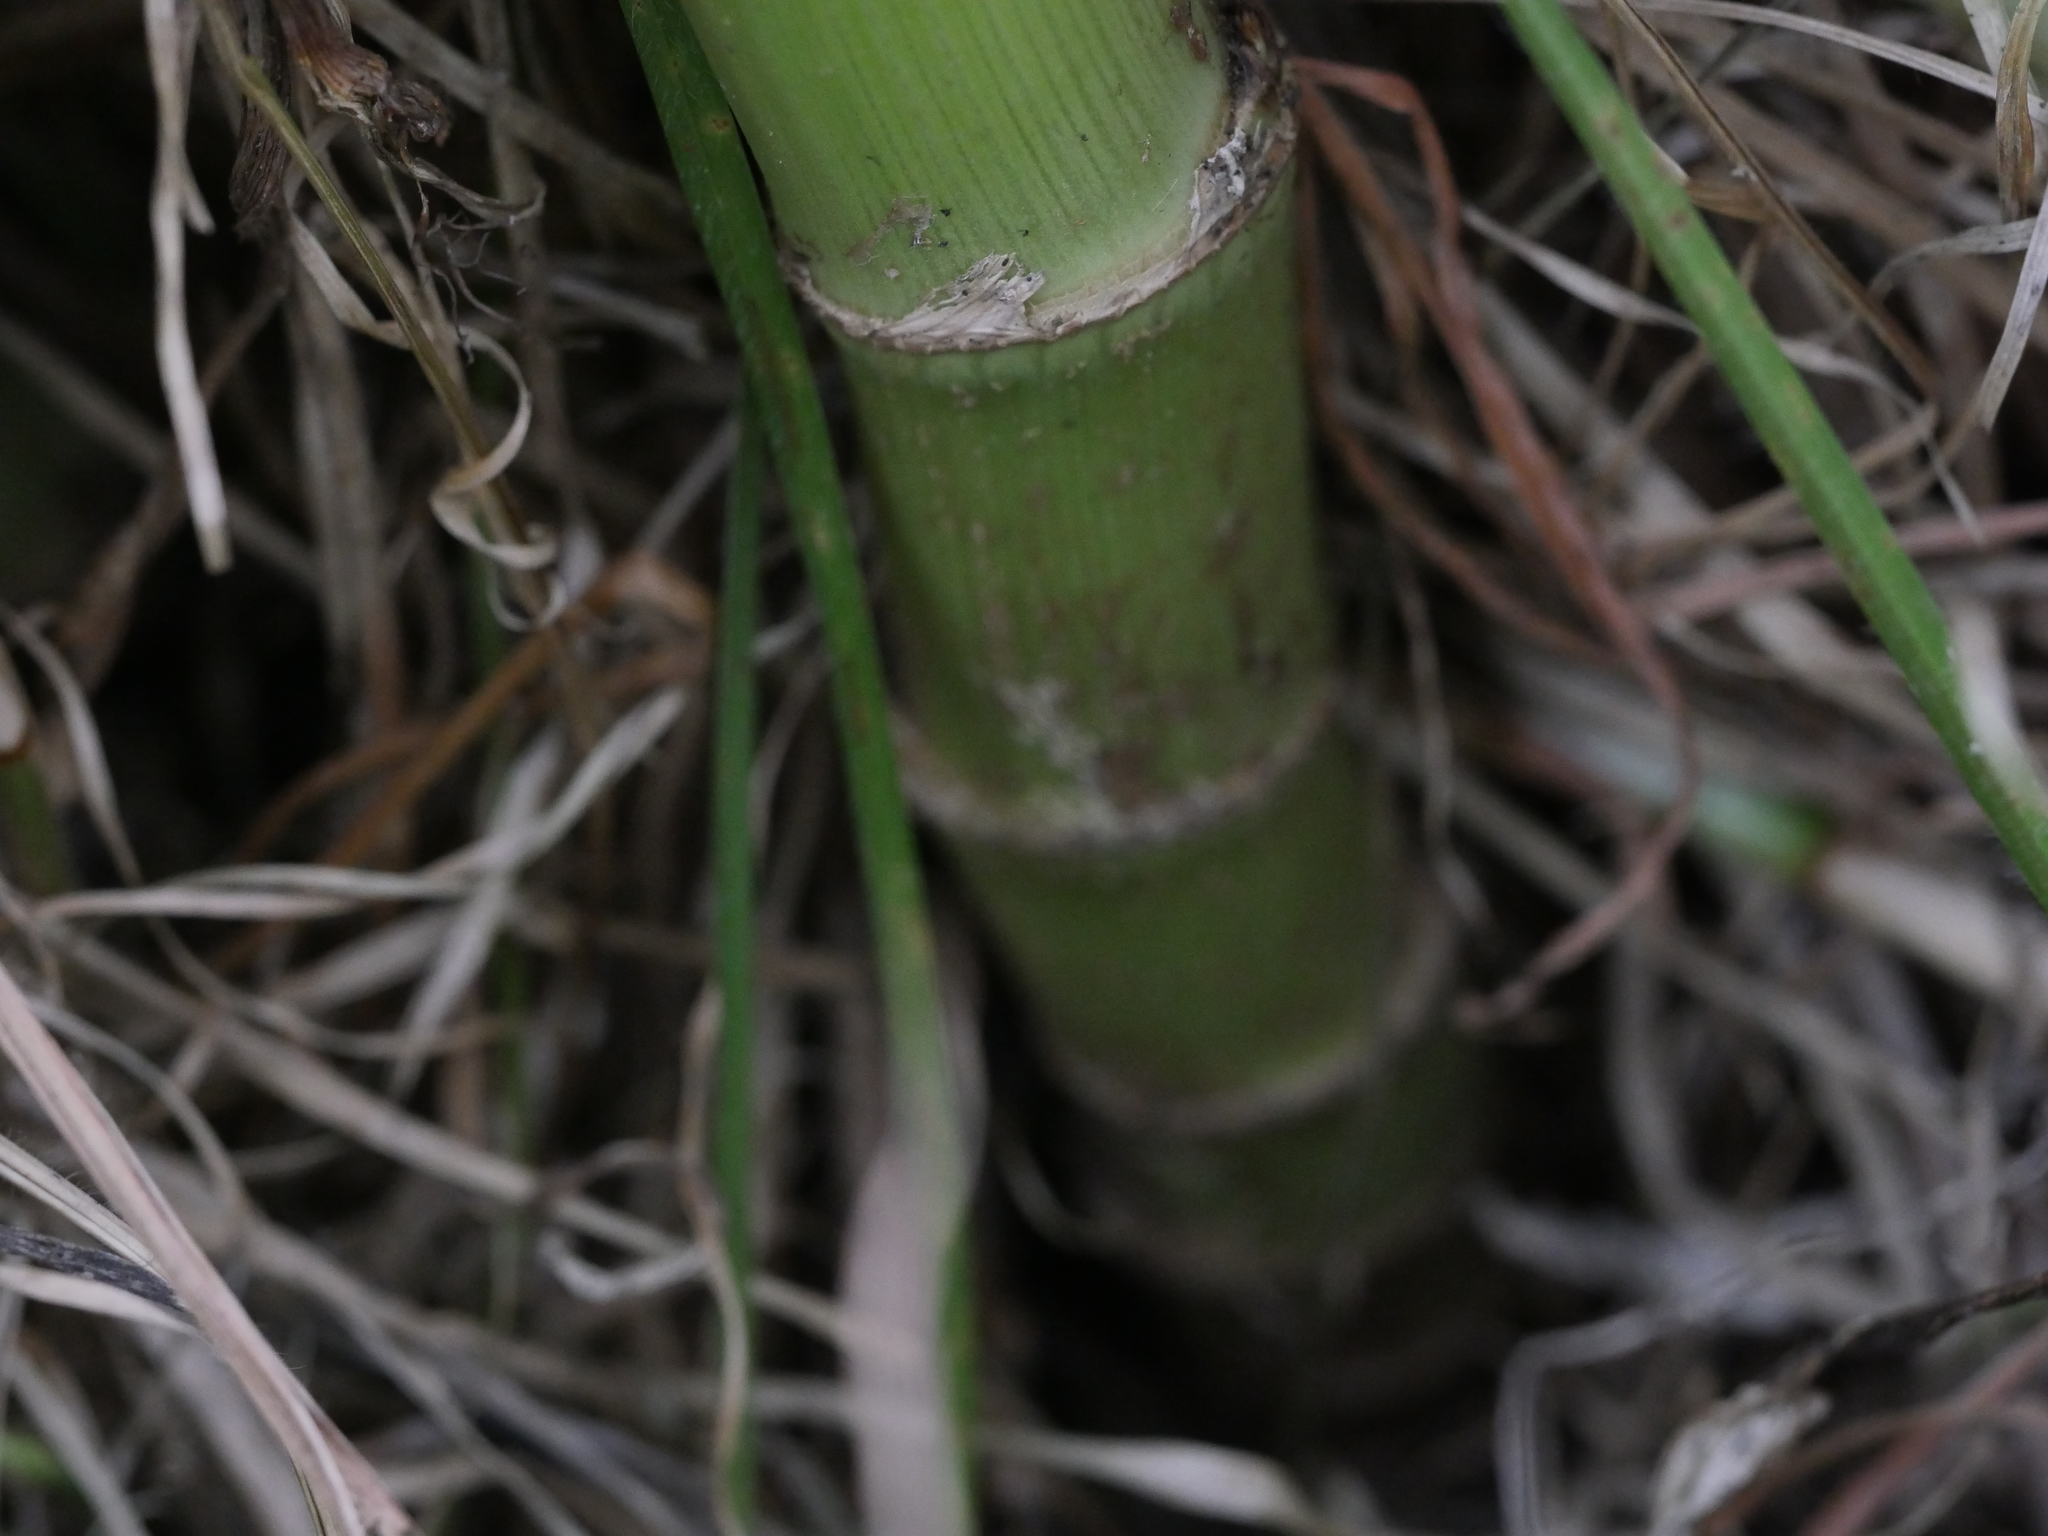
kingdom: Plantae
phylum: Tracheophyta
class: Magnoliopsida
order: Apiales
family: Apiaceae
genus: Foeniculum
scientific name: Foeniculum vulgare
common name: Fennel
